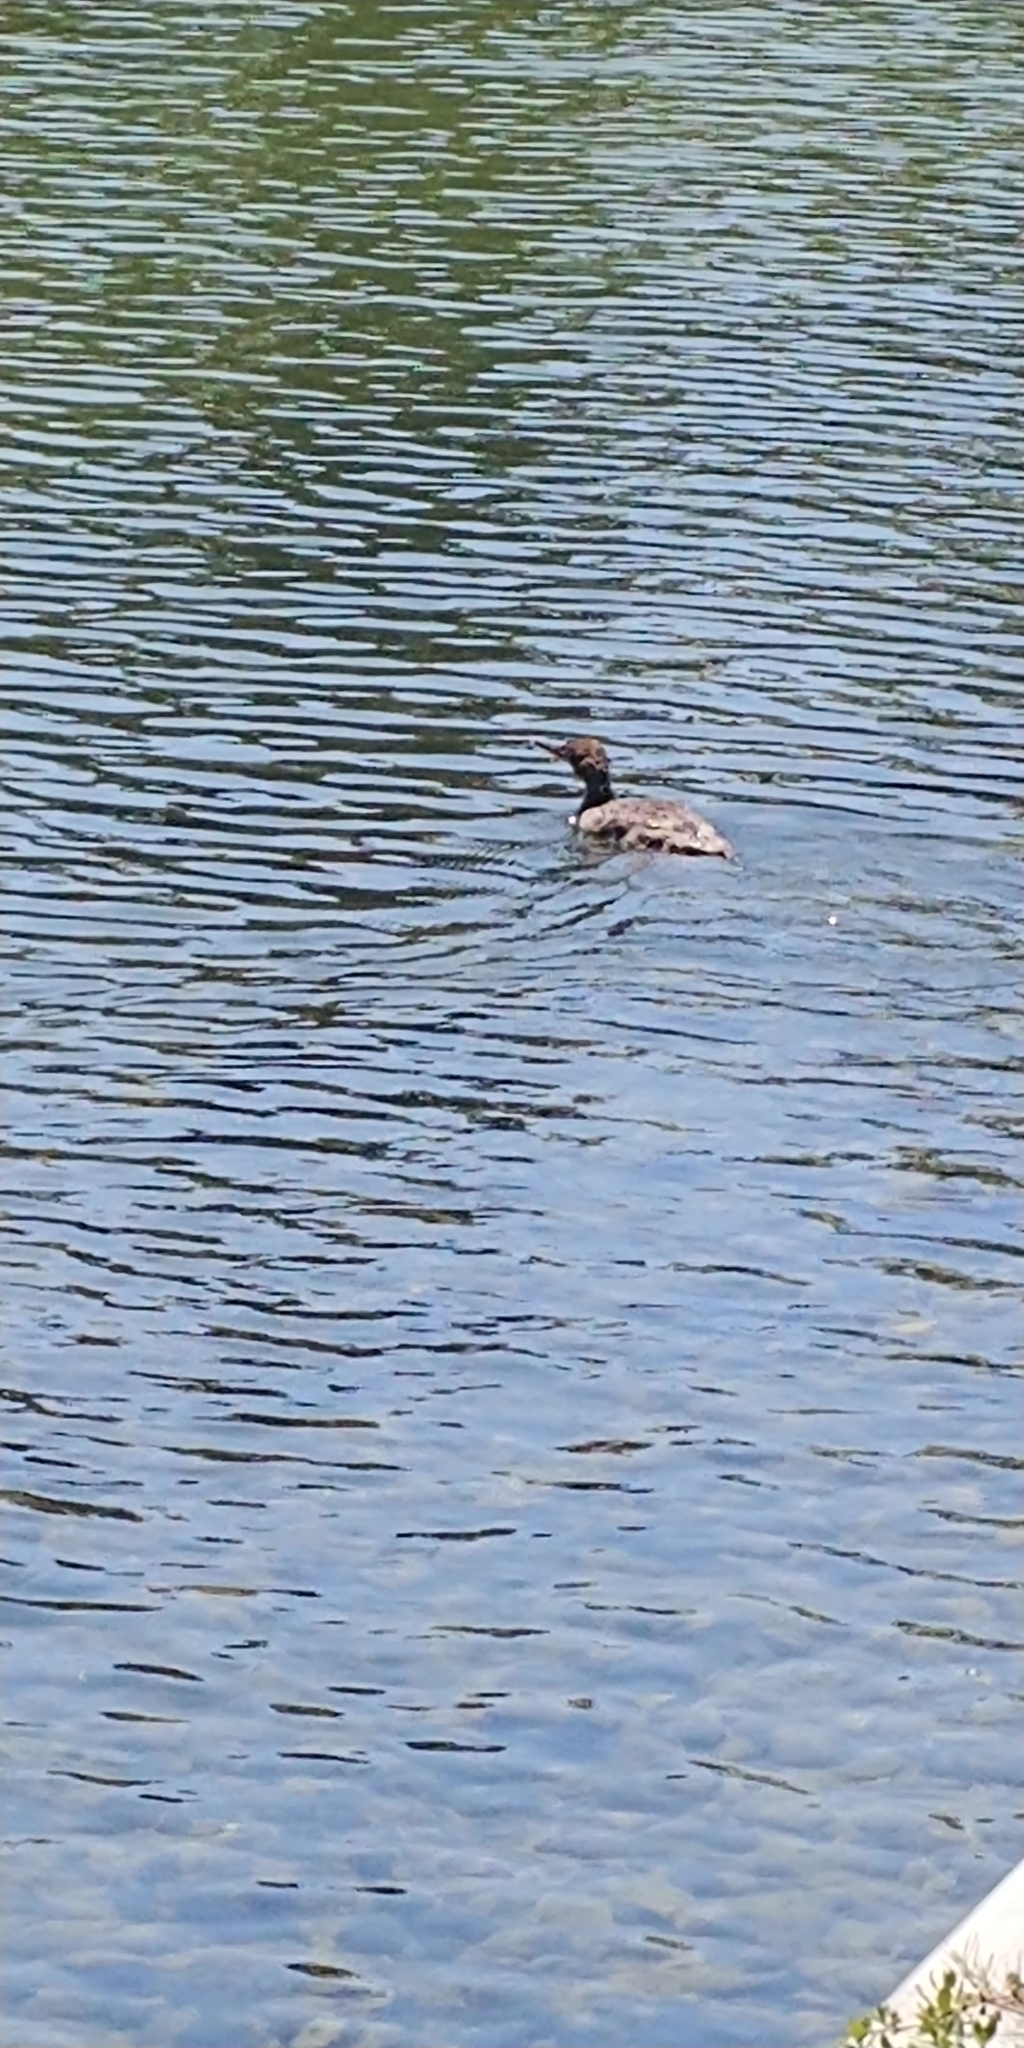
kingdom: Animalia
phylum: Chordata
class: Aves
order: Anseriformes
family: Anatidae
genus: Mergus
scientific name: Mergus serrator
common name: Red-breasted merganser
